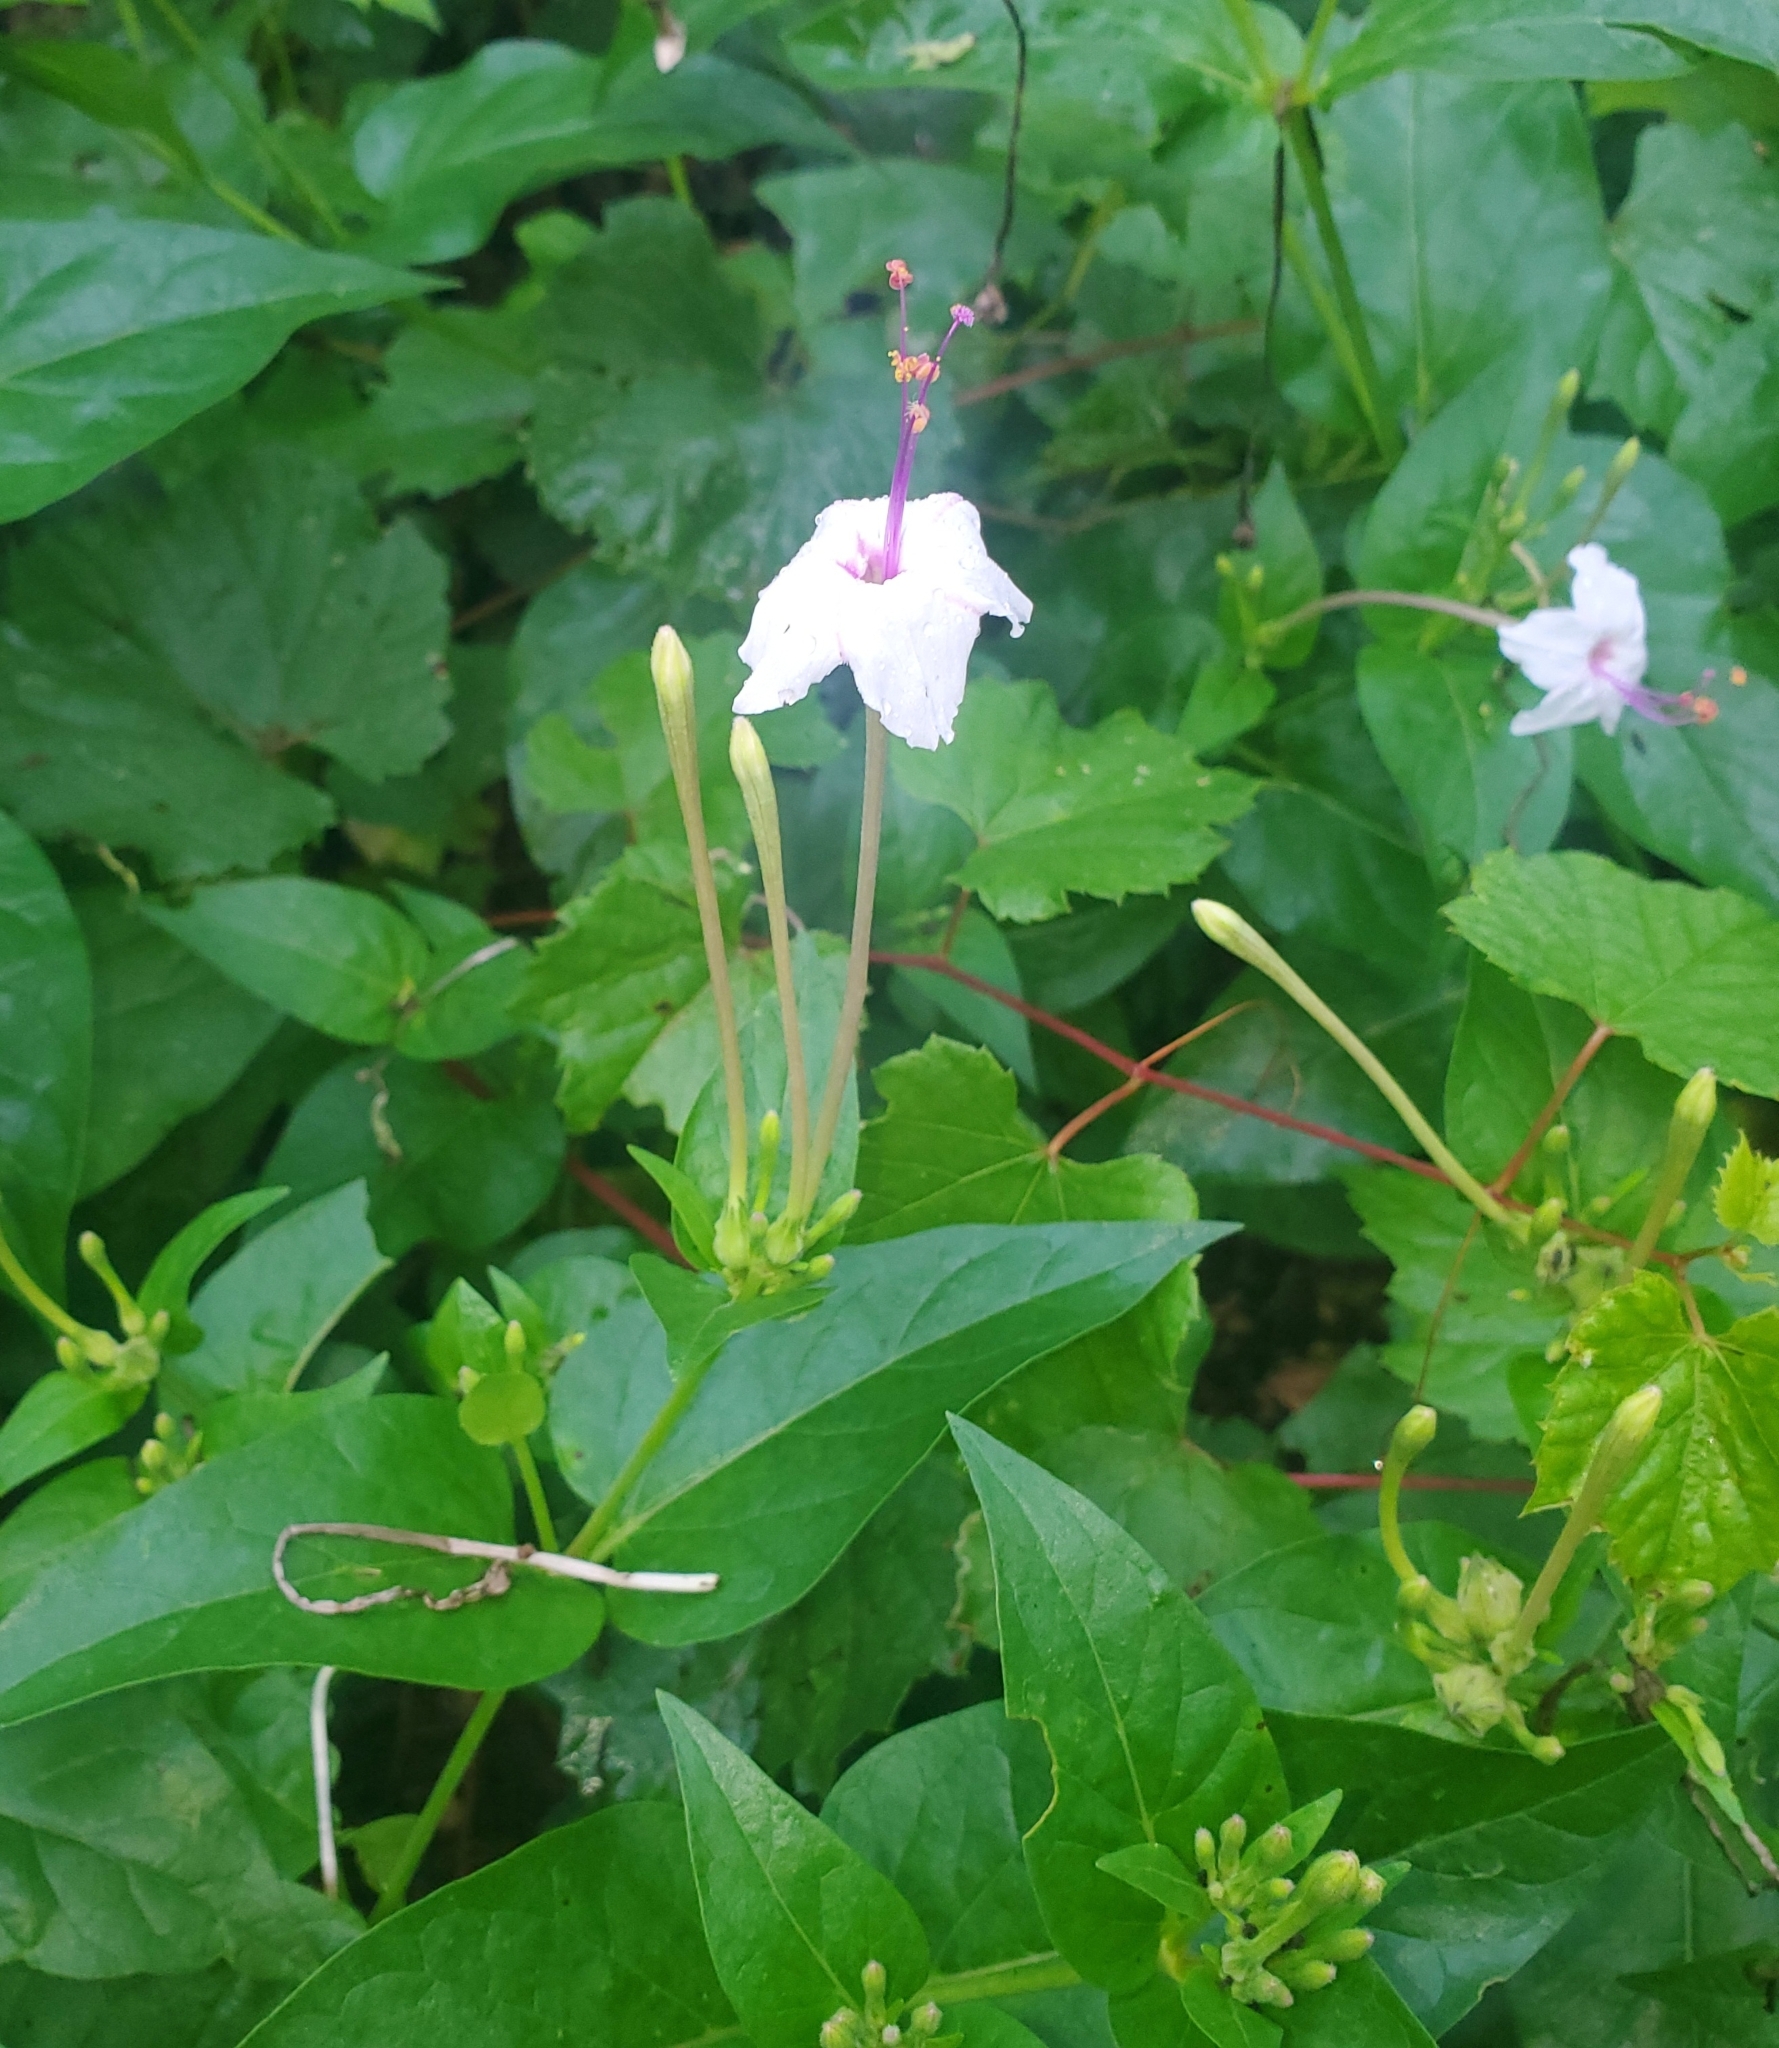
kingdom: Plantae
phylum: Tracheophyta
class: Magnoliopsida
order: Caryophyllales
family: Nyctaginaceae
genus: Mirabilis
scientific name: Mirabilis longiflora
